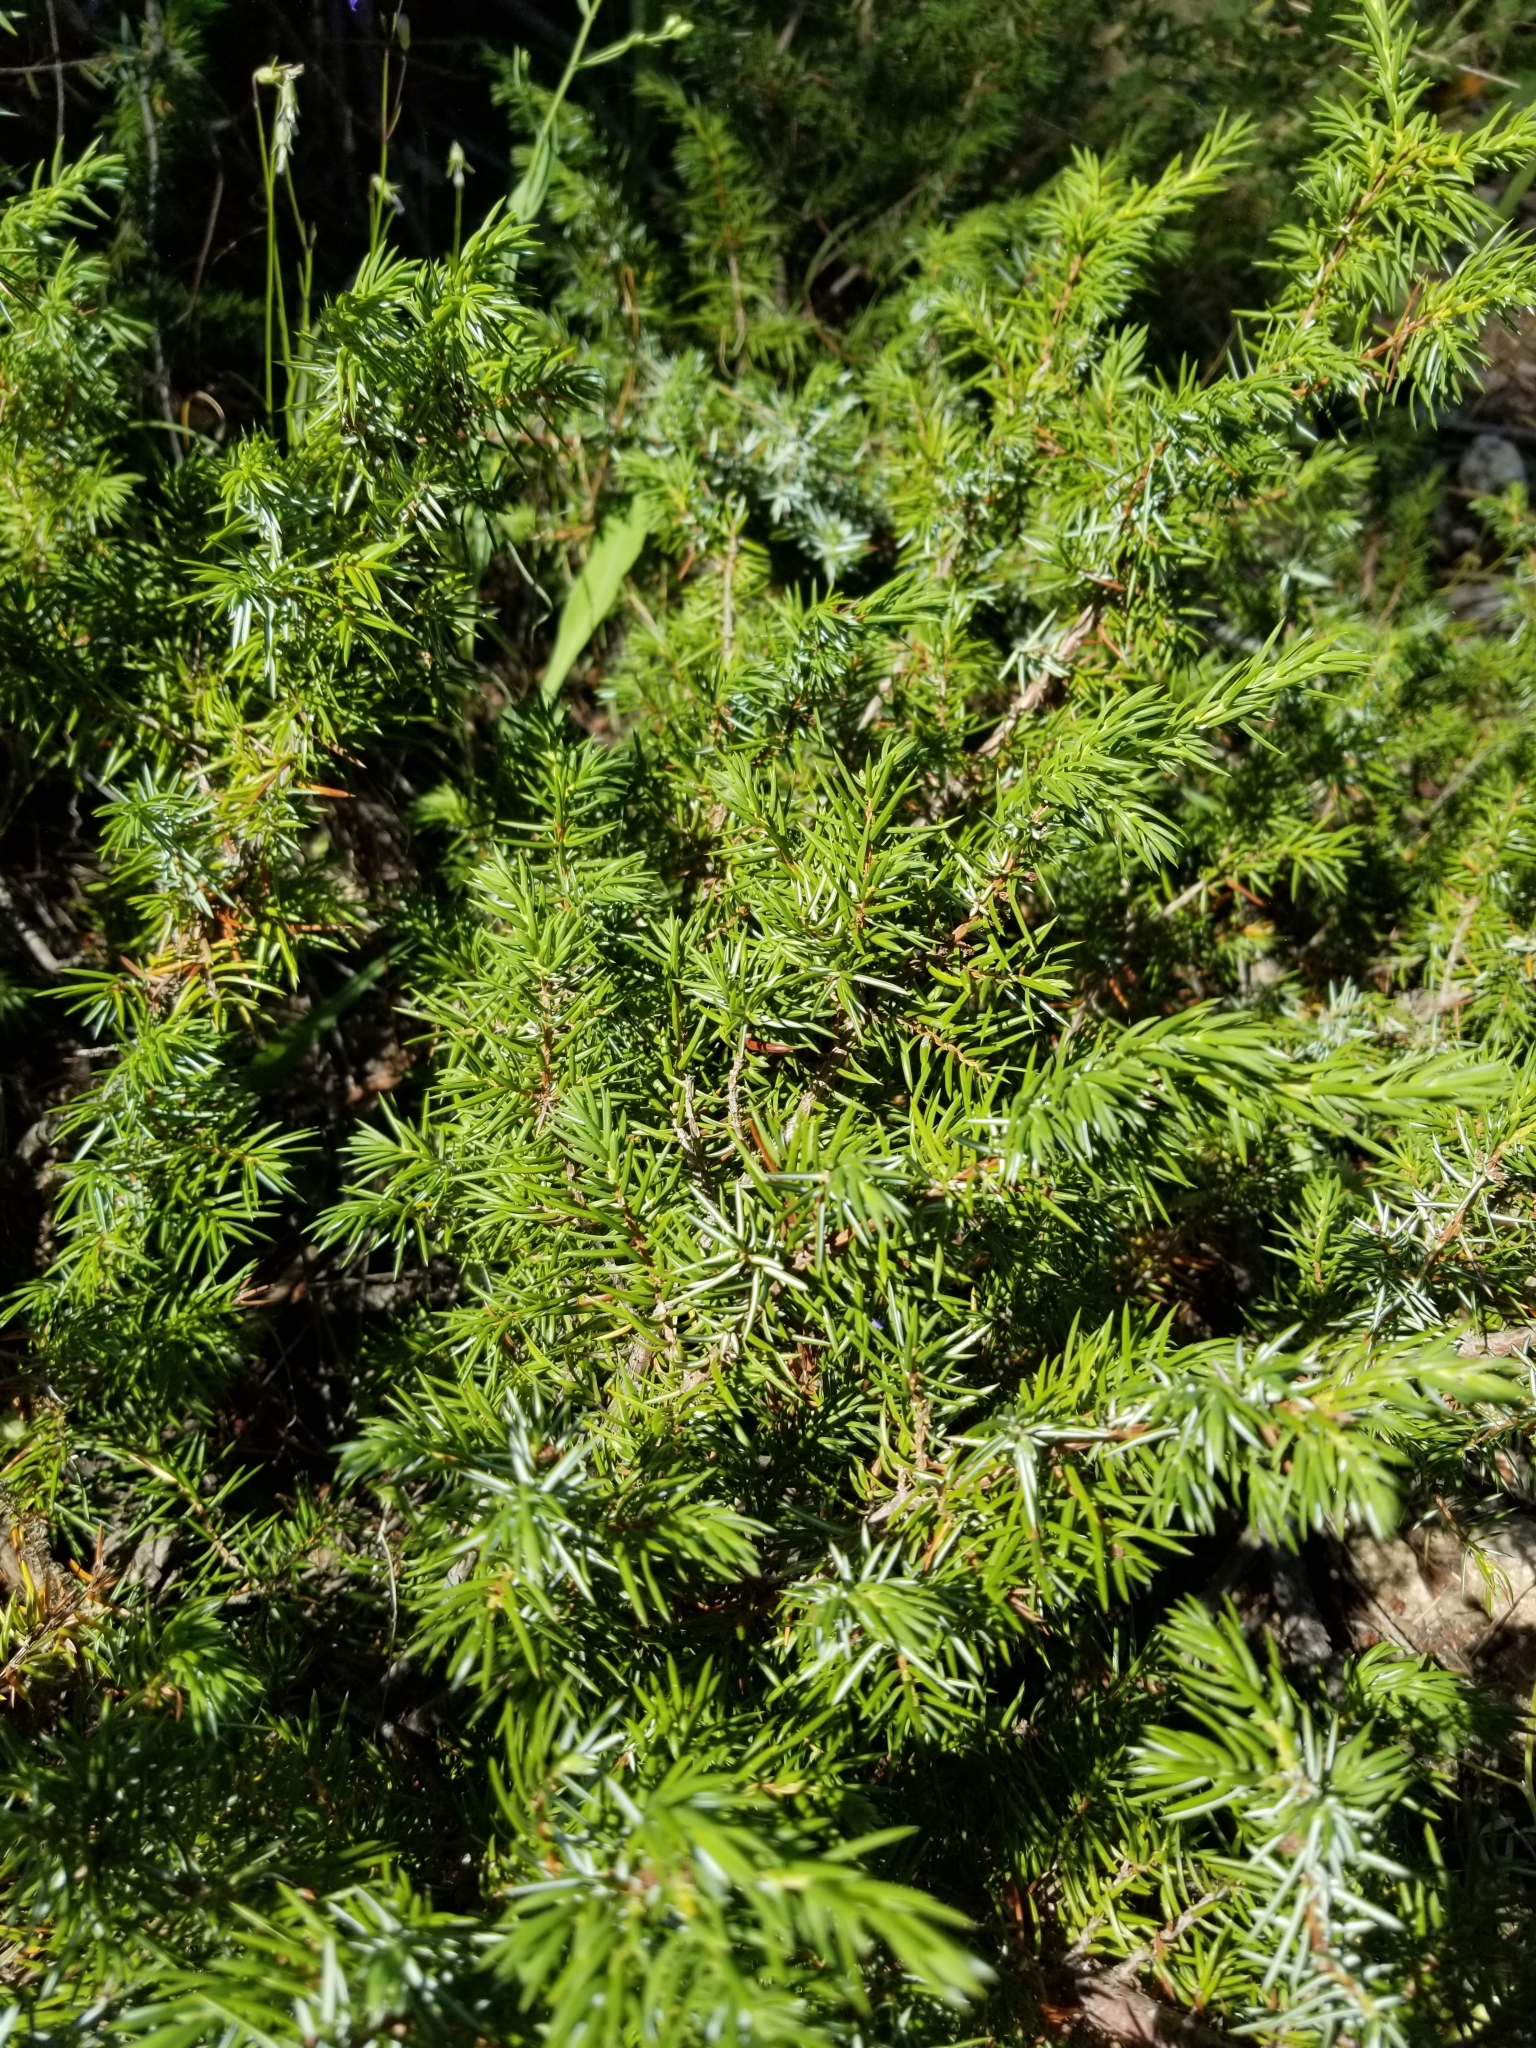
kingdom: Plantae
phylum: Tracheophyta
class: Pinopsida
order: Pinales
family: Cupressaceae
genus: Juniperus
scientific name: Juniperus communis
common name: Common juniper
